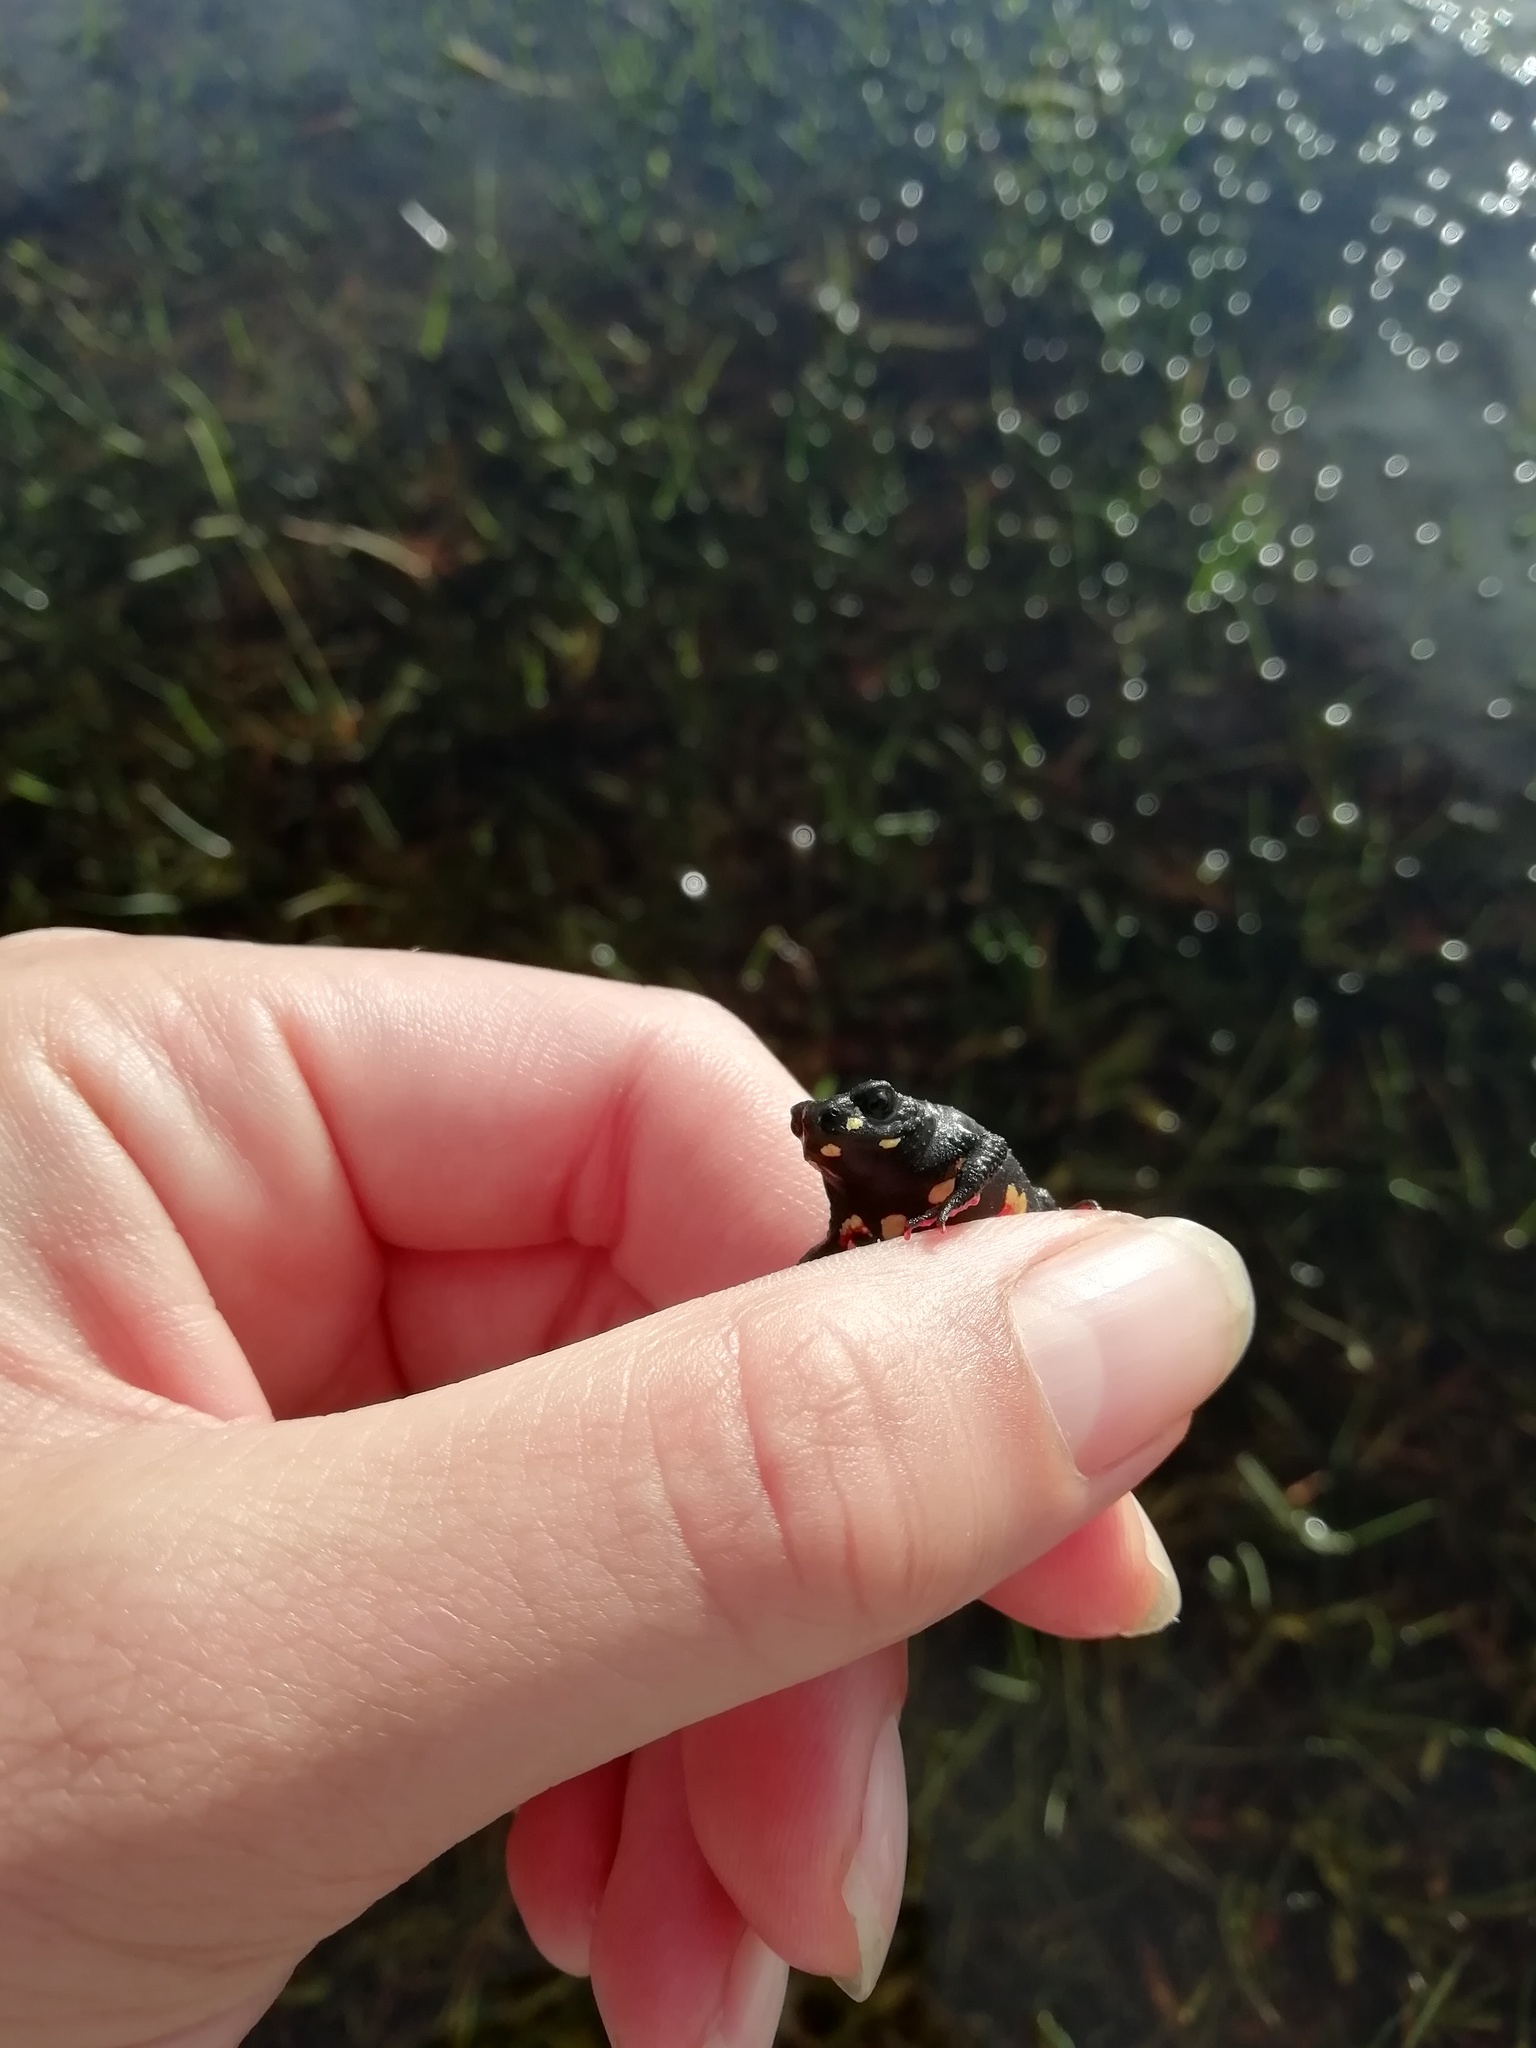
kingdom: Animalia
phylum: Chordata
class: Amphibia
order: Anura
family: Bufonidae
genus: Melanophryniscus
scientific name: Melanophryniscus montevidensis
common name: Montevideo redbelly toad
